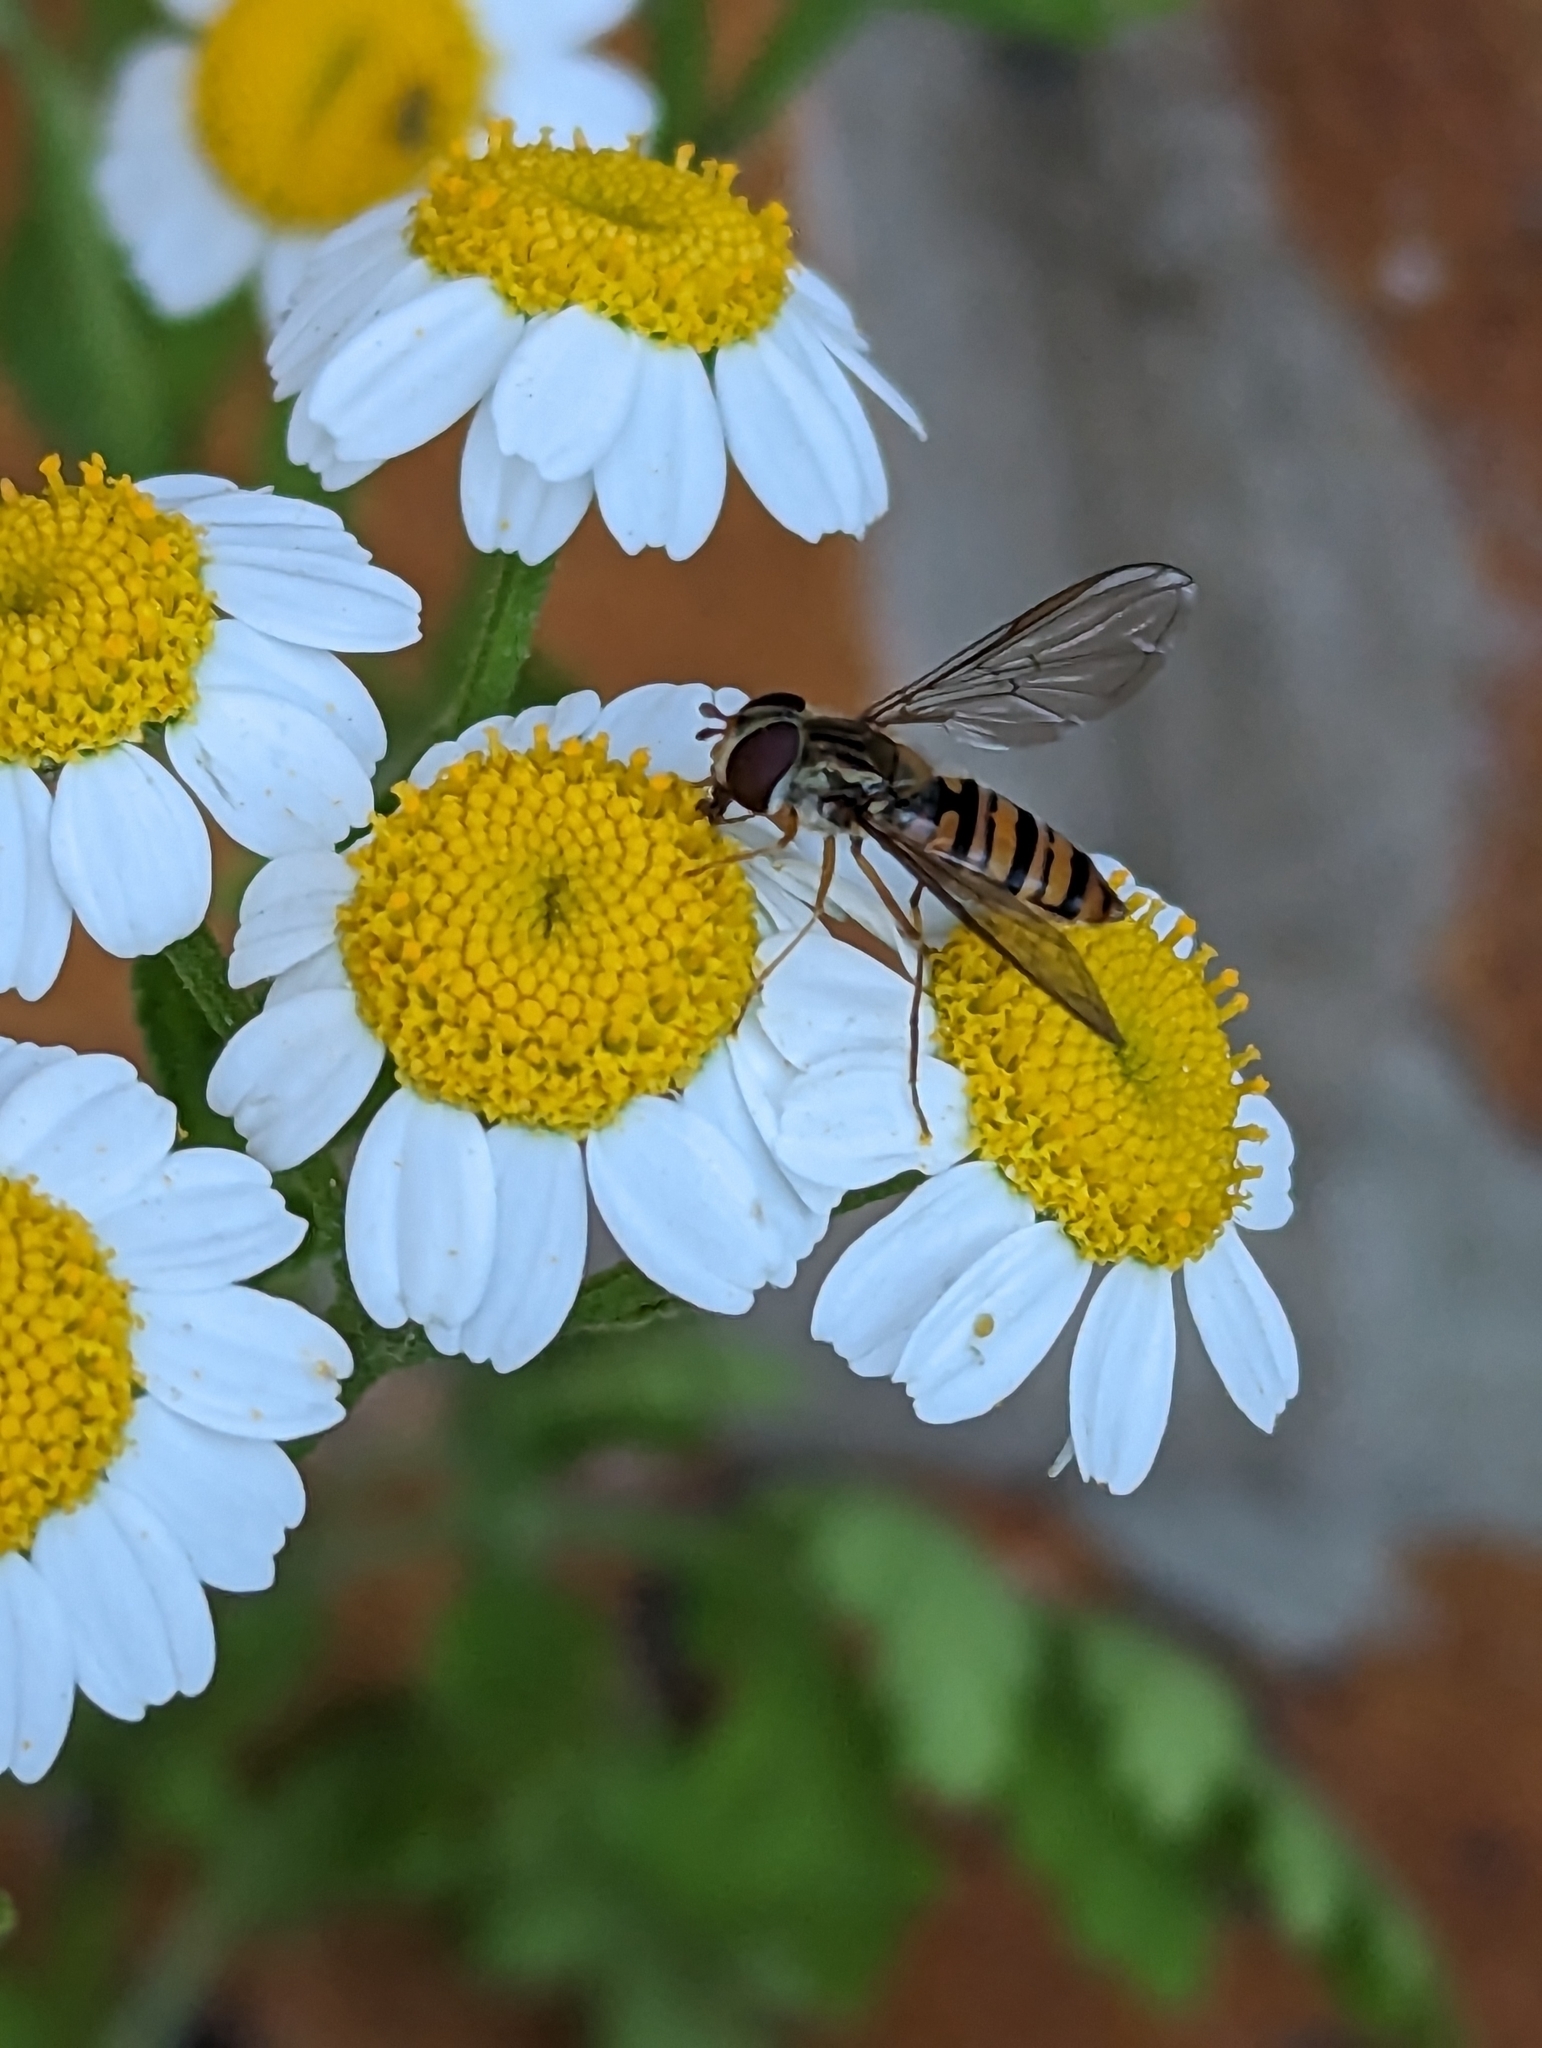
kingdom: Animalia
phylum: Arthropoda
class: Insecta
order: Diptera
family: Syrphidae
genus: Episyrphus
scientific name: Episyrphus balteatus
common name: Marmalade hoverfly
